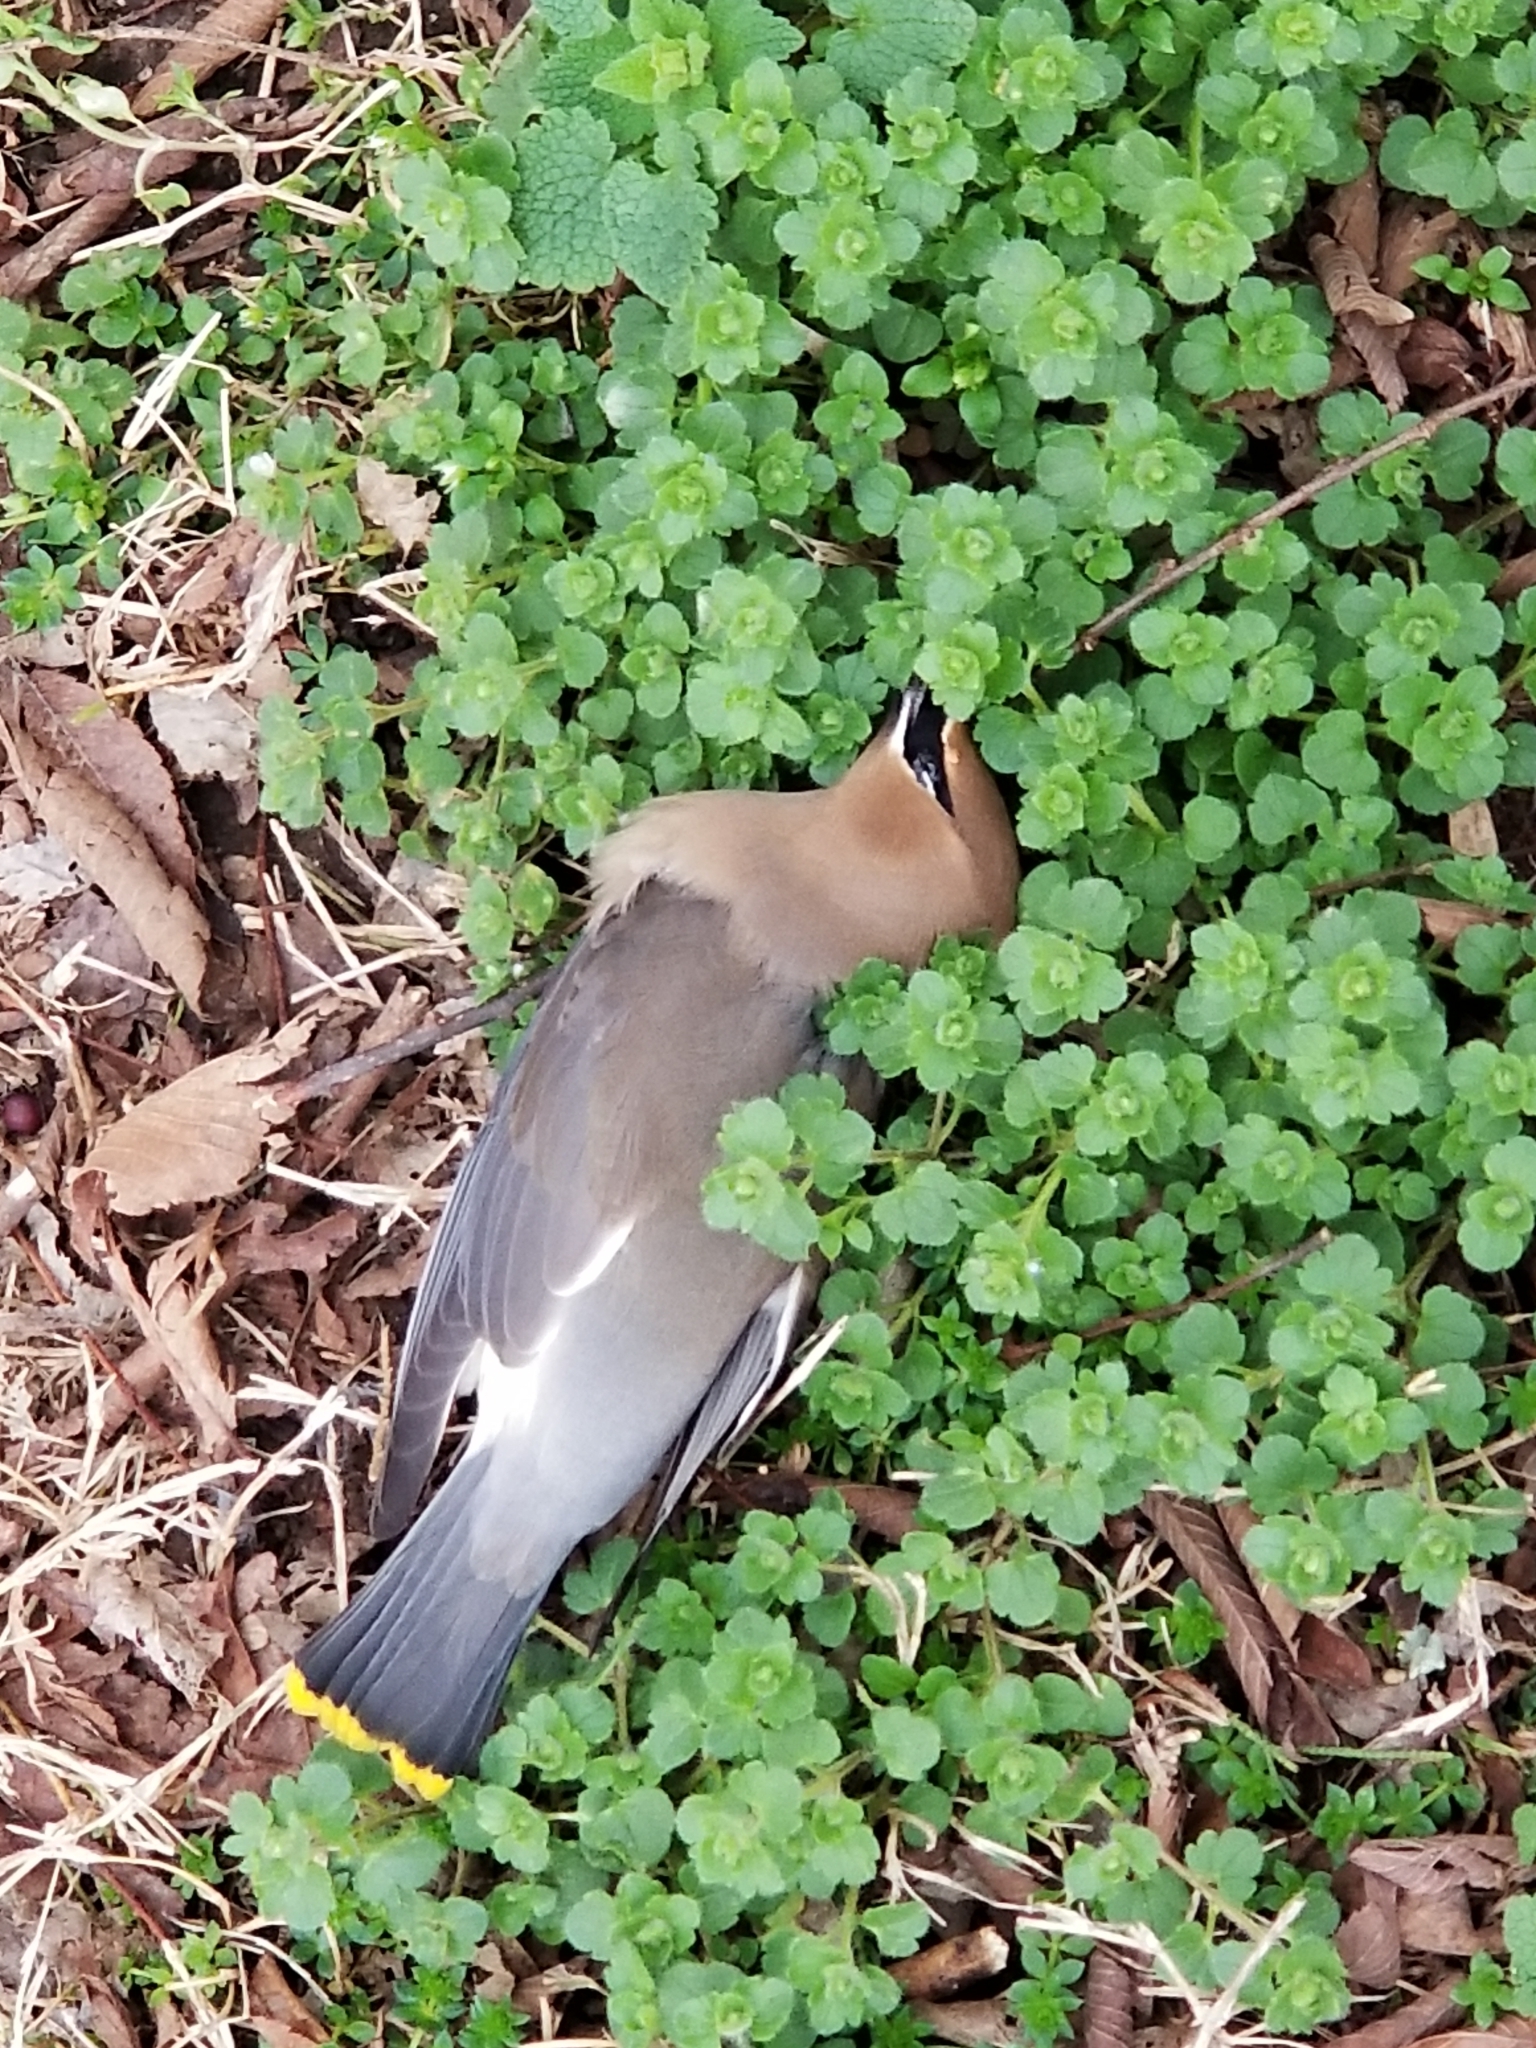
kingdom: Animalia
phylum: Chordata
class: Aves
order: Passeriformes
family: Bombycillidae
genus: Bombycilla
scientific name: Bombycilla cedrorum
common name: Cedar waxwing
